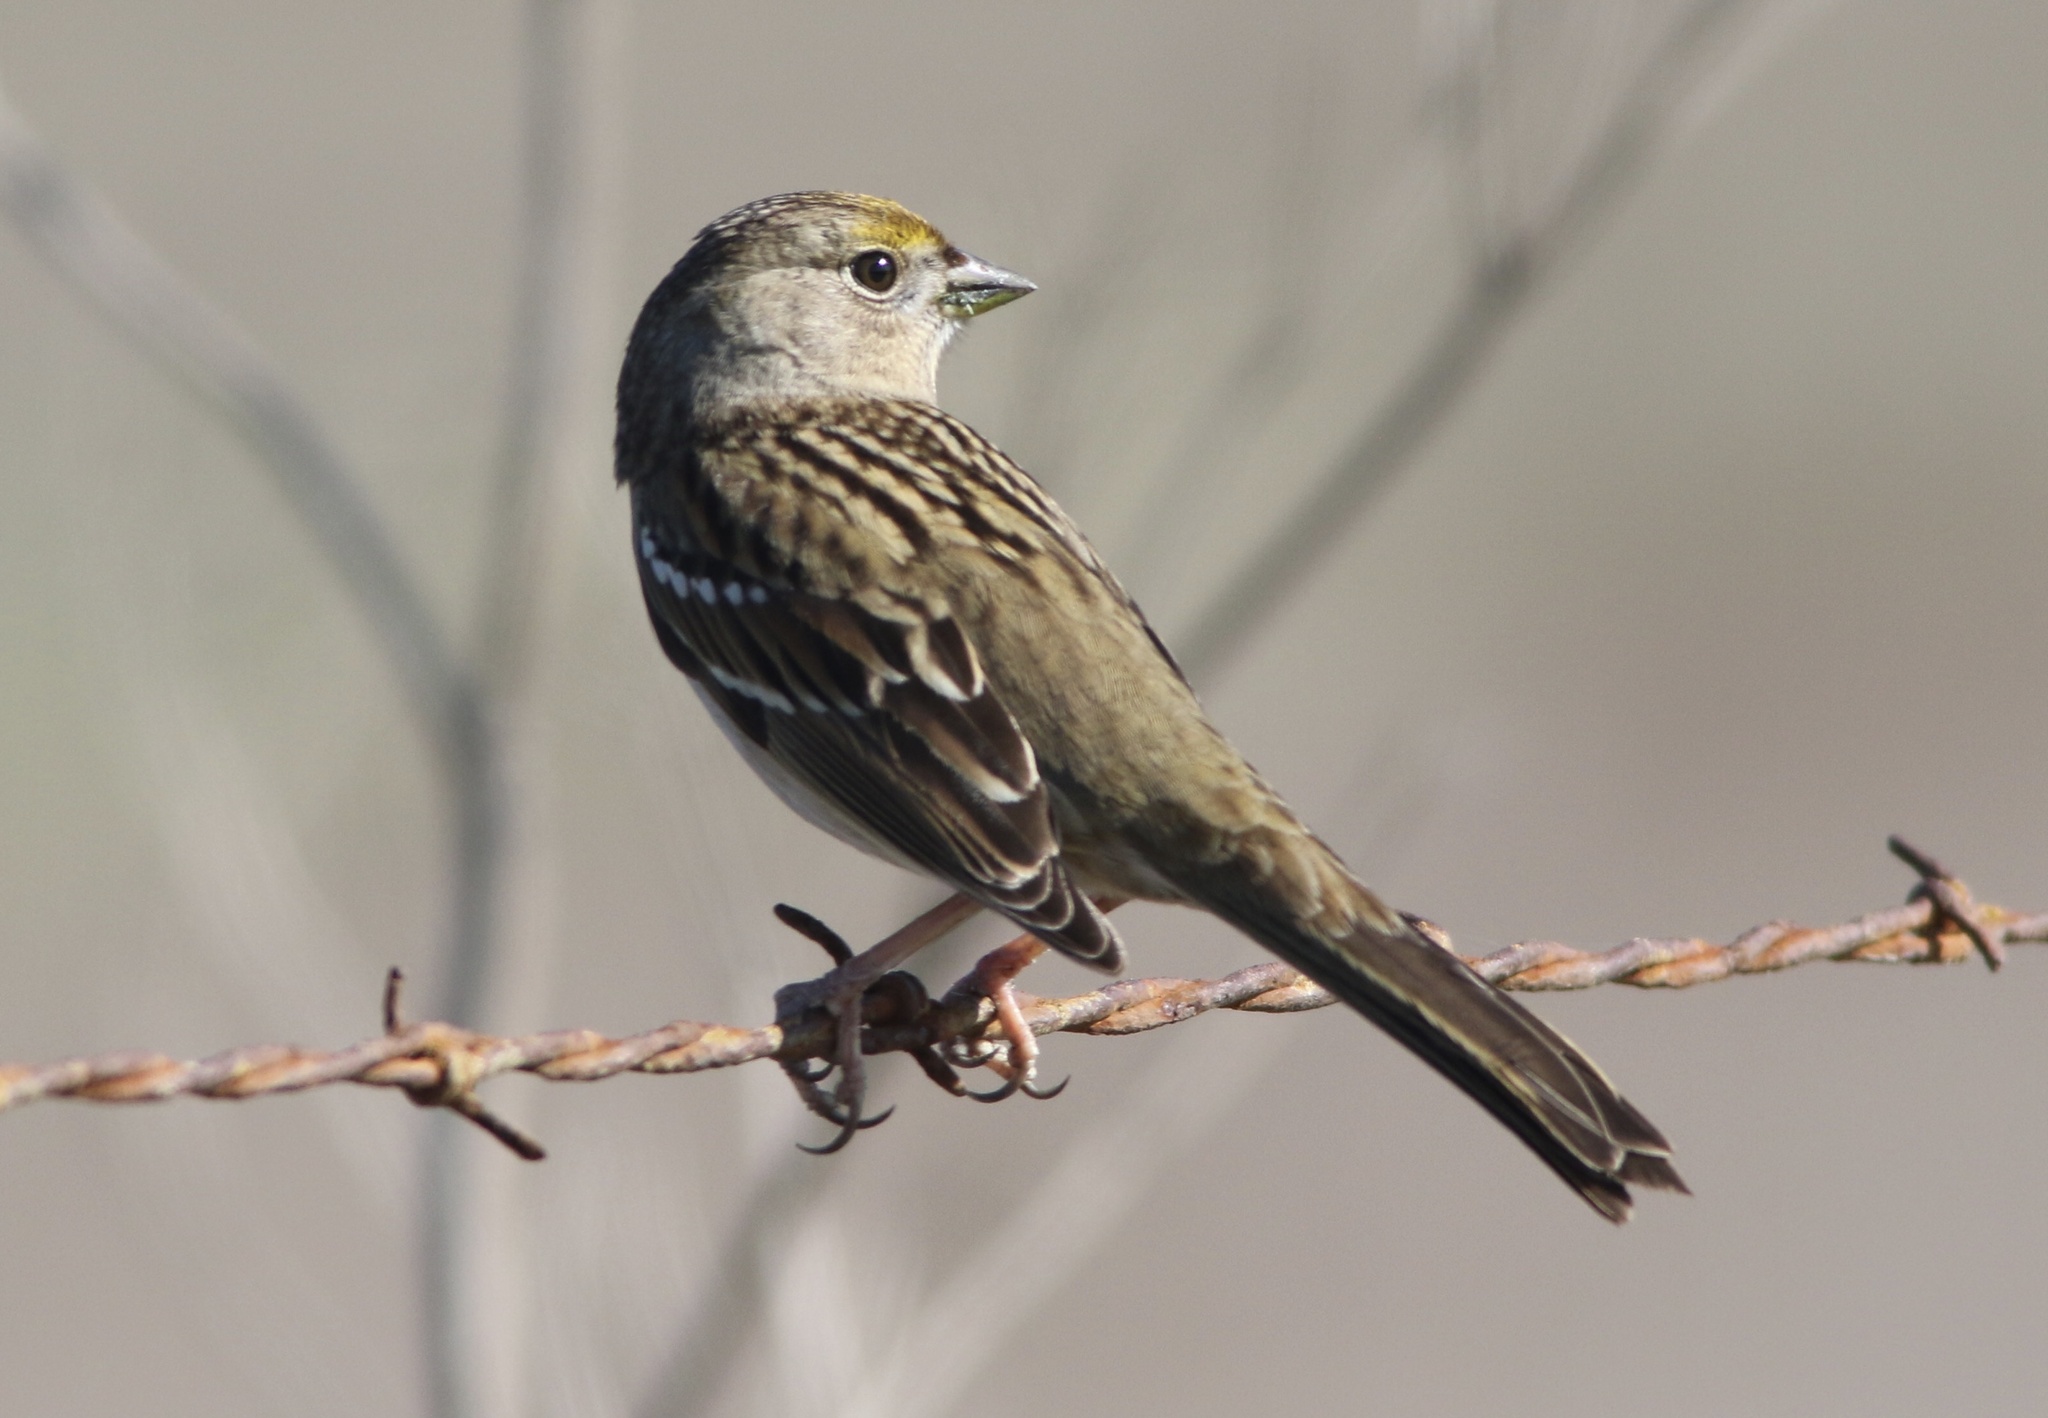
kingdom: Animalia
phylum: Chordata
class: Aves
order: Passeriformes
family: Passerellidae
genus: Zonotrichia
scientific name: Zonotrichia atricapilla
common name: Golden-crowned sparrow
